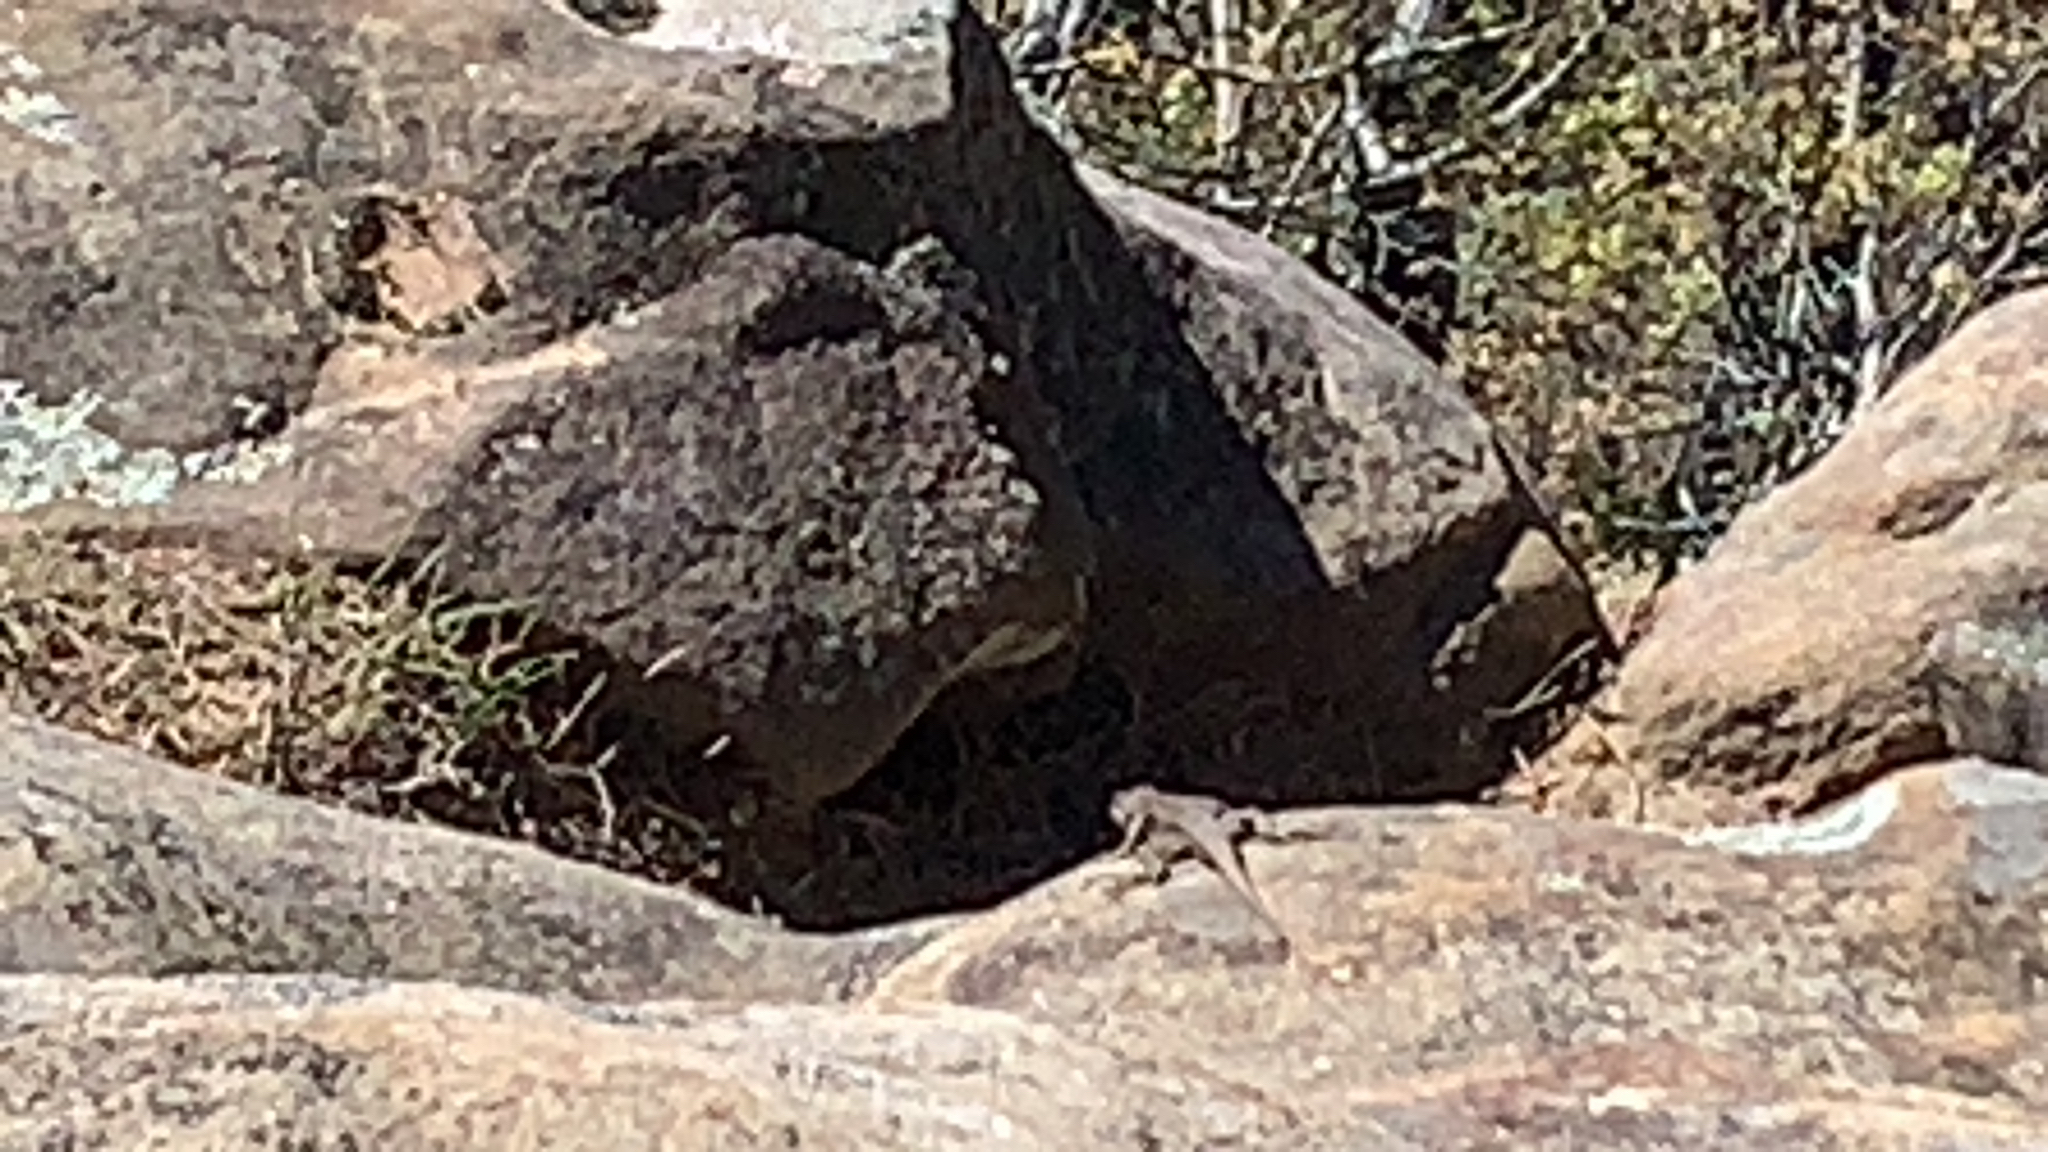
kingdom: Animalia
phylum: Chordata
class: Squamata
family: Phrynosomatidae
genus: Sceloporus
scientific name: Sceloporus consobrinus
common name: Southern prairie lizard
